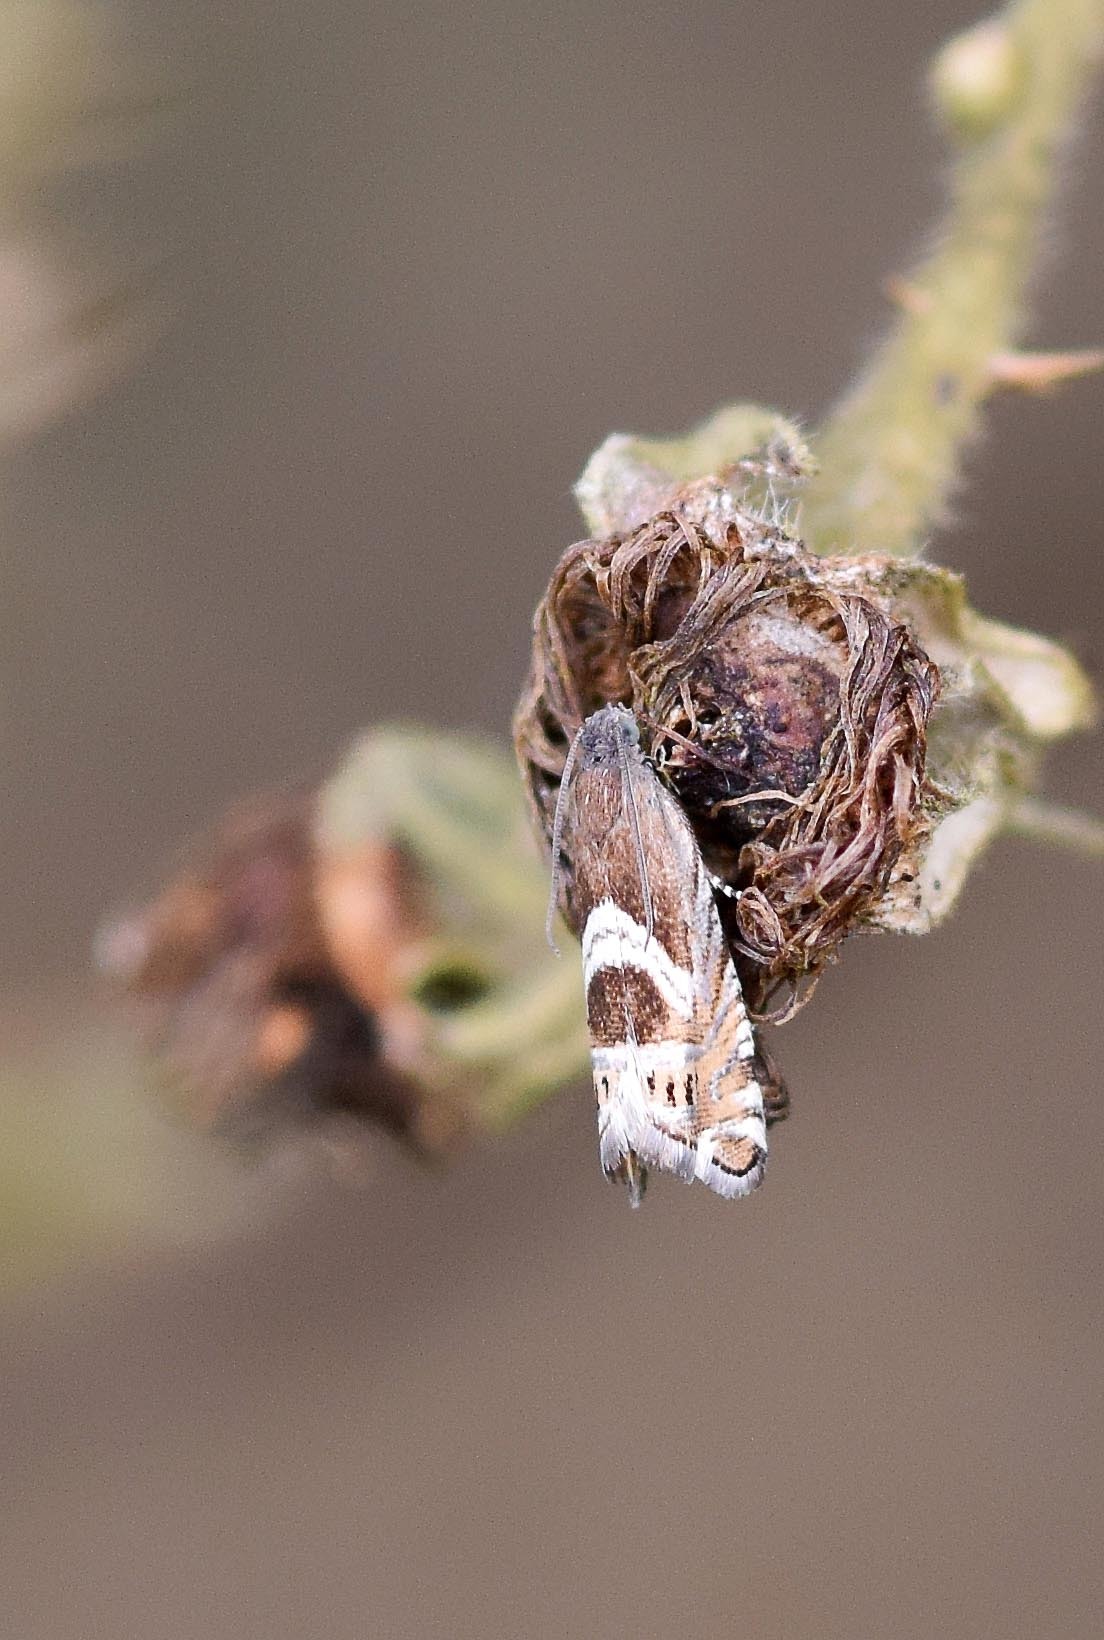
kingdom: Animalia
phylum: Arthropoda
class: Insecta
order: Lepidoptera
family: Tortricidae
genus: Grapholita
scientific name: Grapholita
